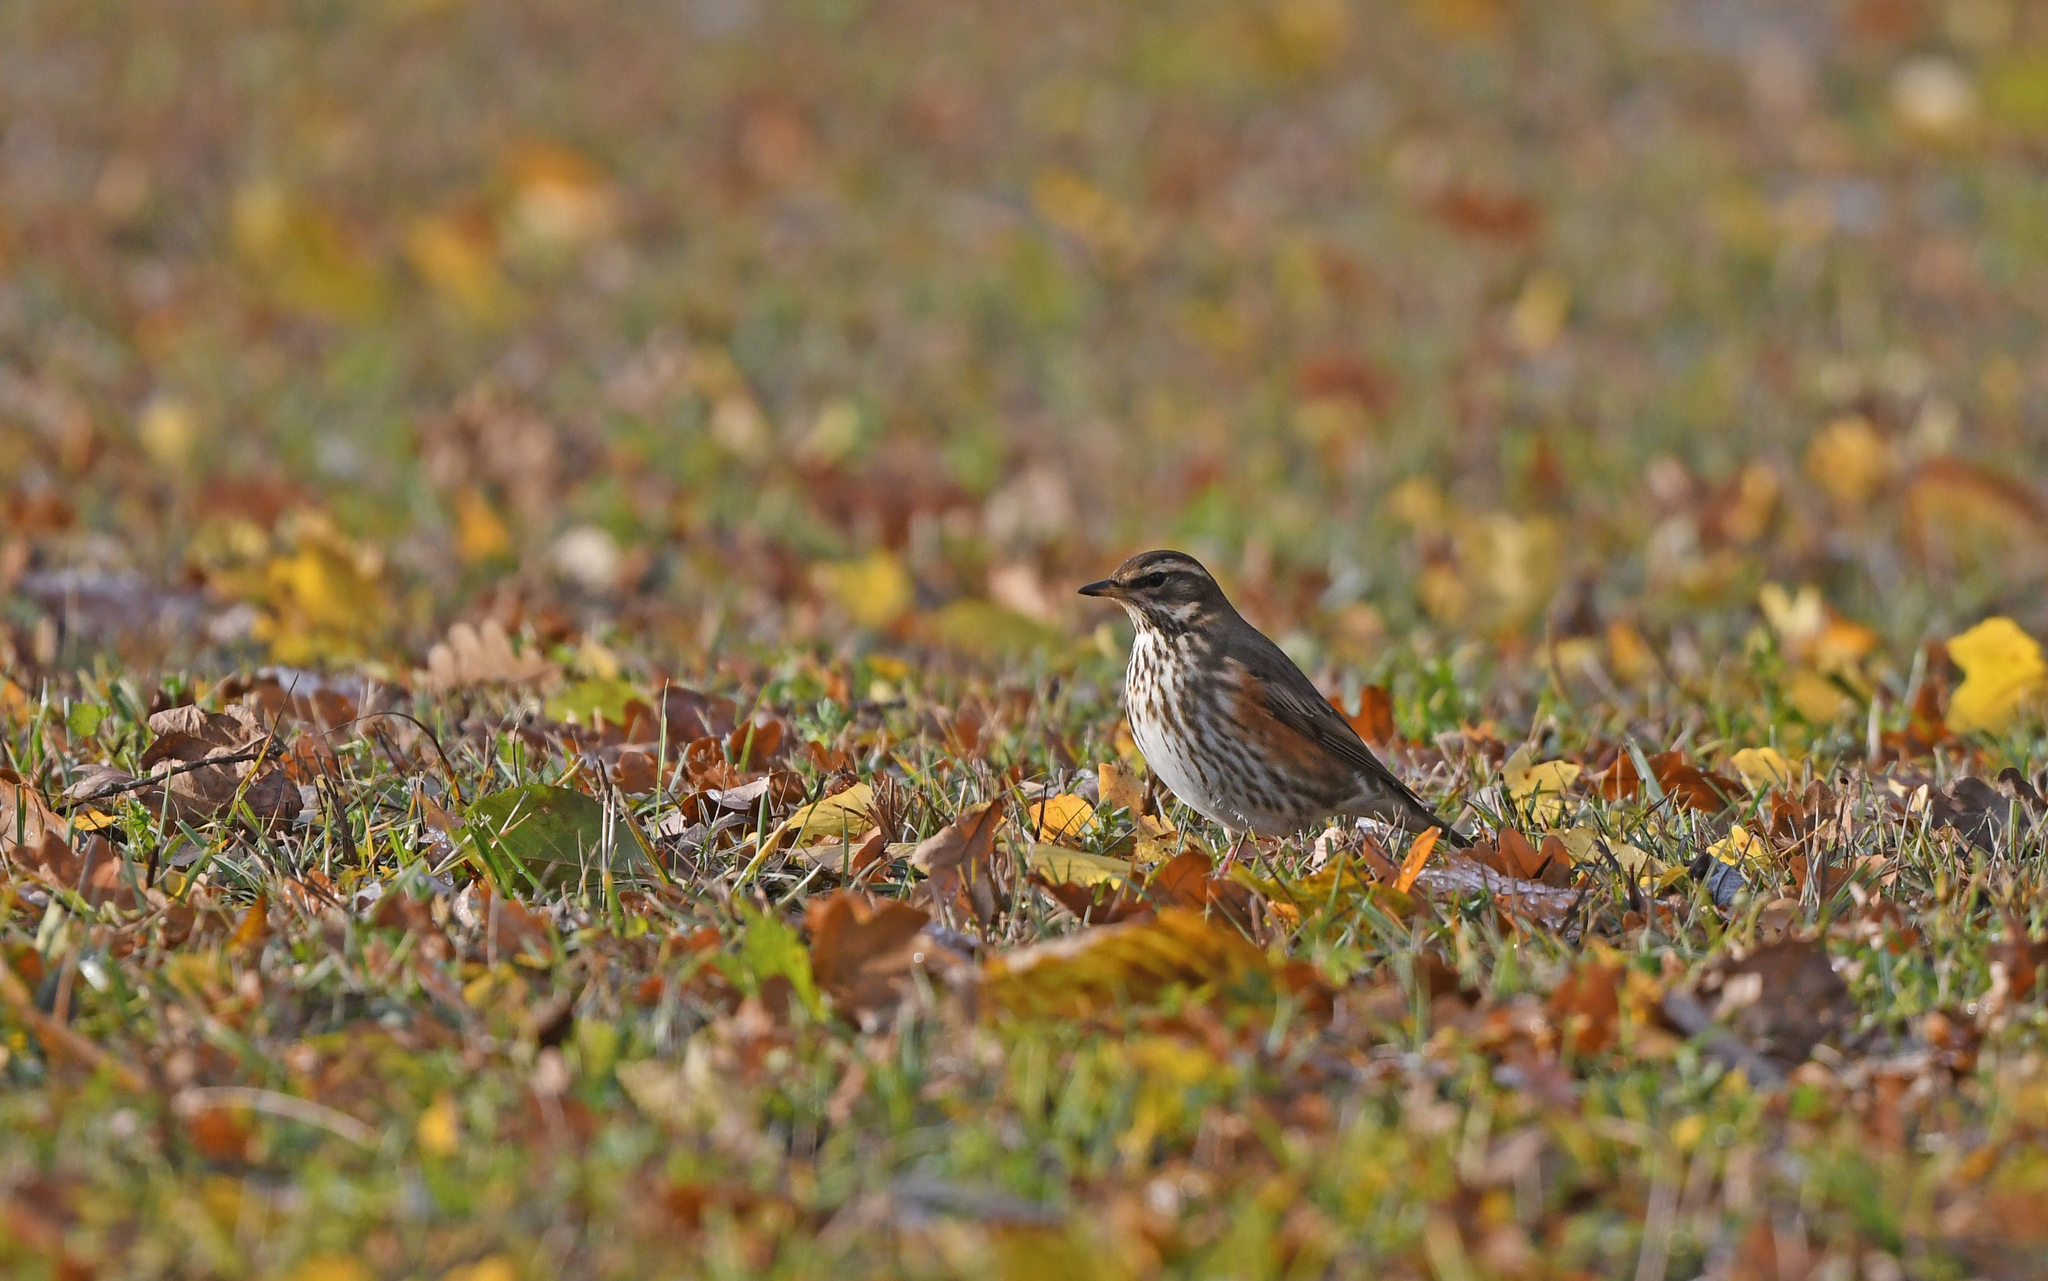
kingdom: Animalia
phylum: Chordata
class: Aves
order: Passeriformes
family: Turdidae
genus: Turdus
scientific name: Turdus iliacus
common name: Redwing
